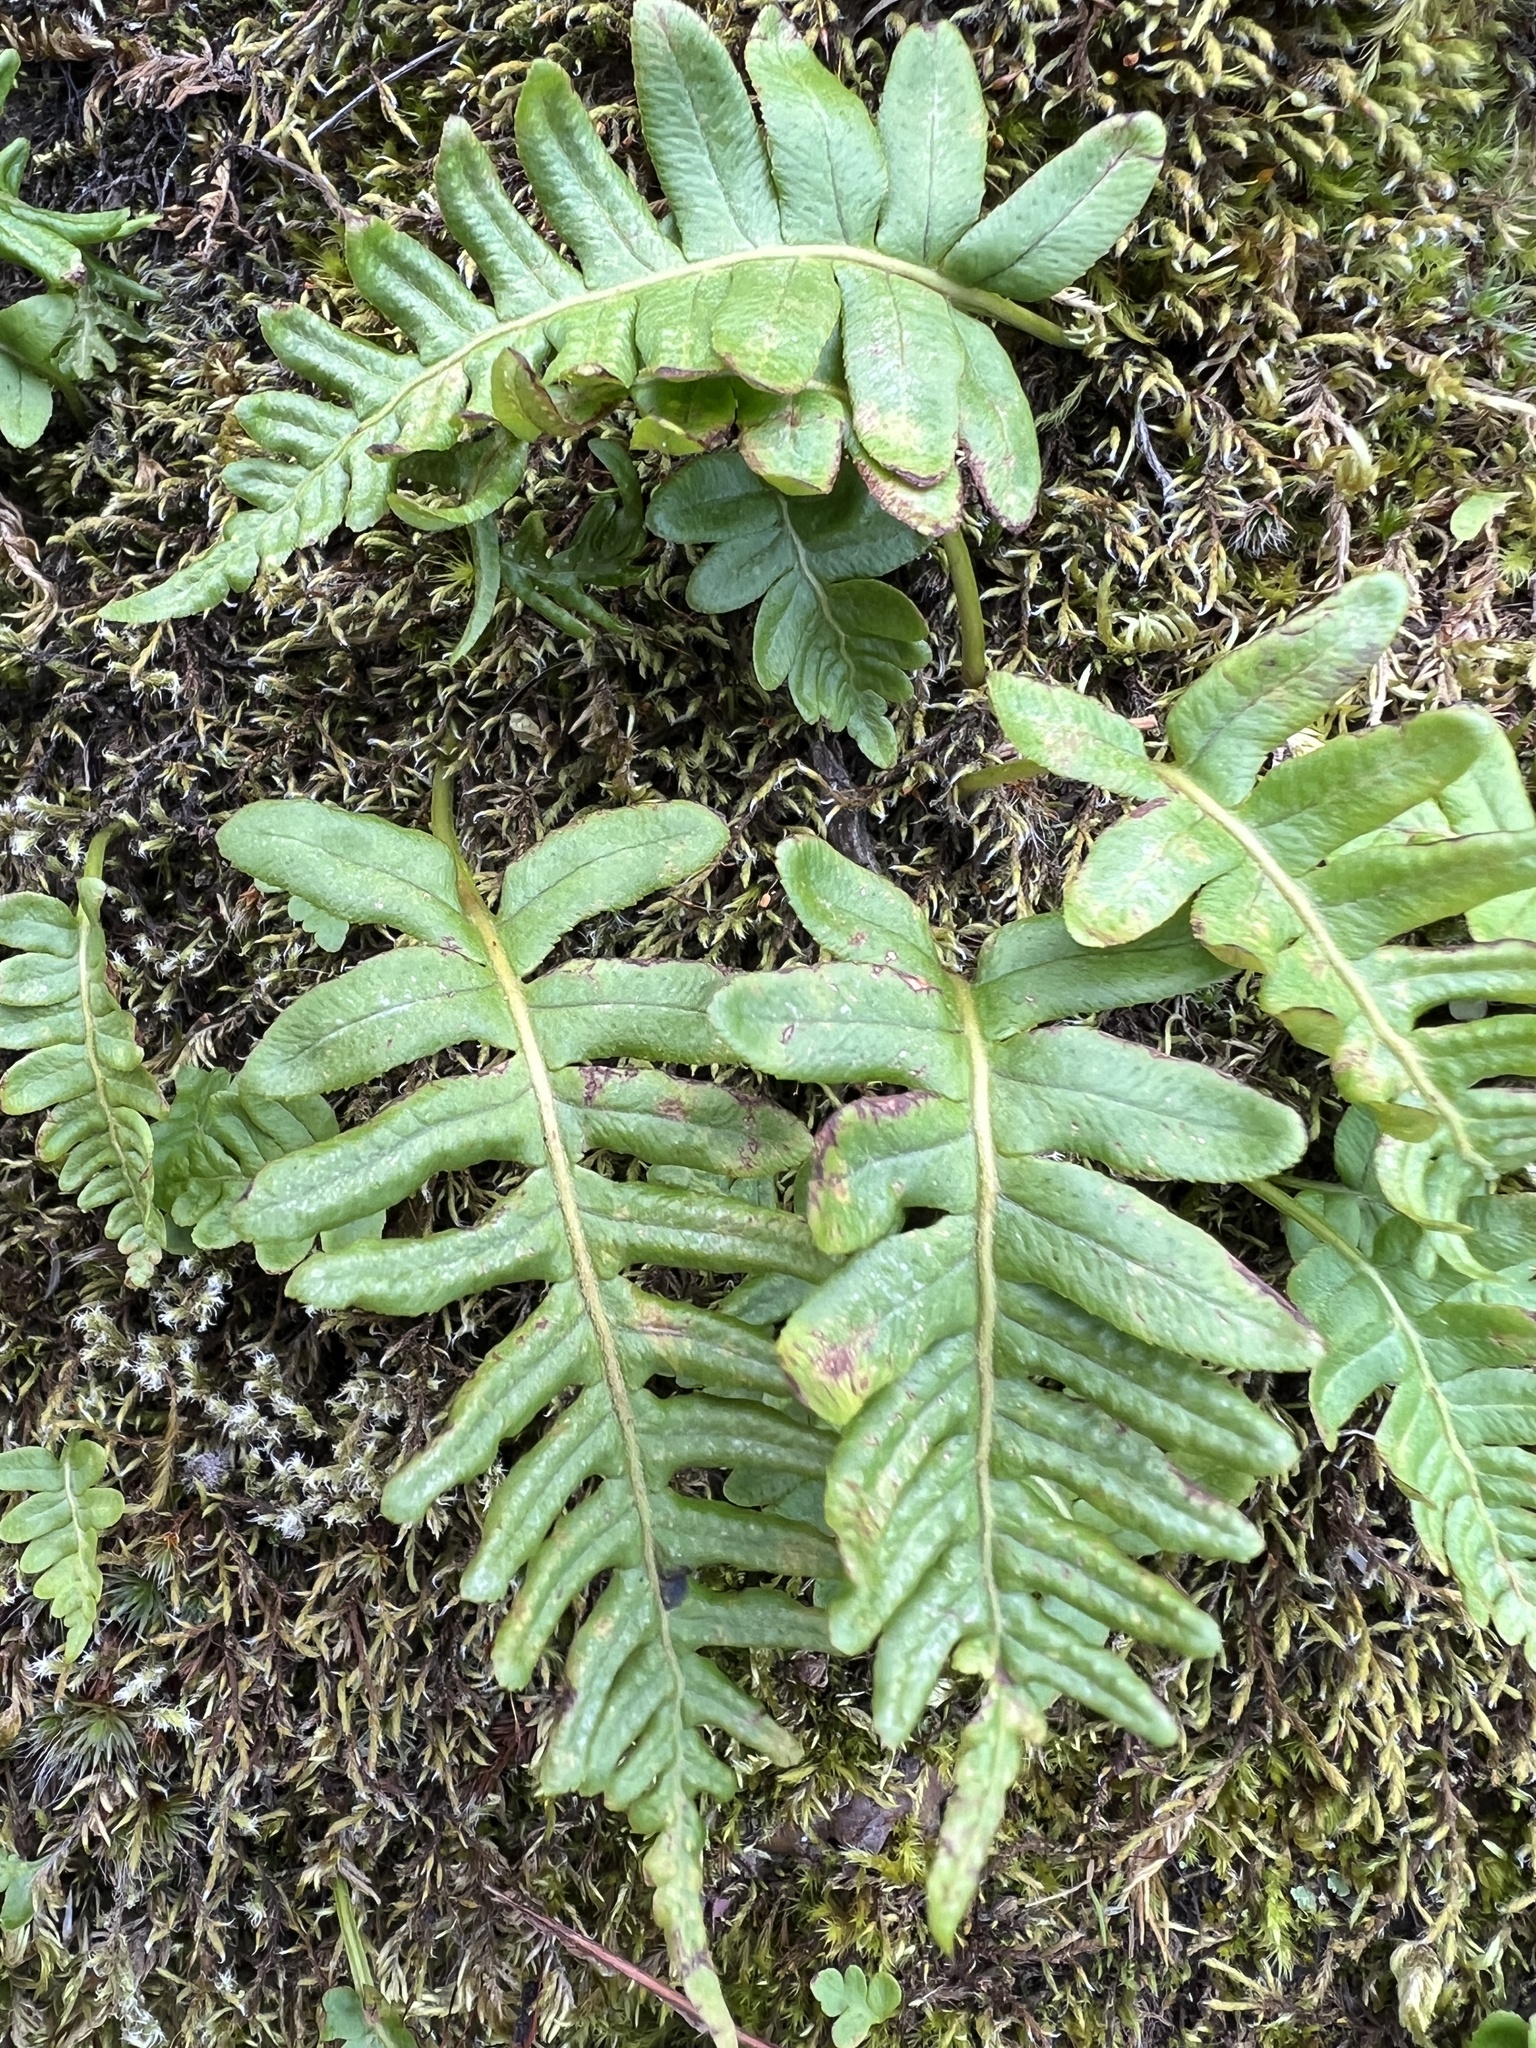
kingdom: Plantae
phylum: Tracheophyta
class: Polypodiopsida
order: Polypodiales
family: Polypodiaceae
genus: Polypodium
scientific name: Polypodium glycyrrhiza
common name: Licorice fern
